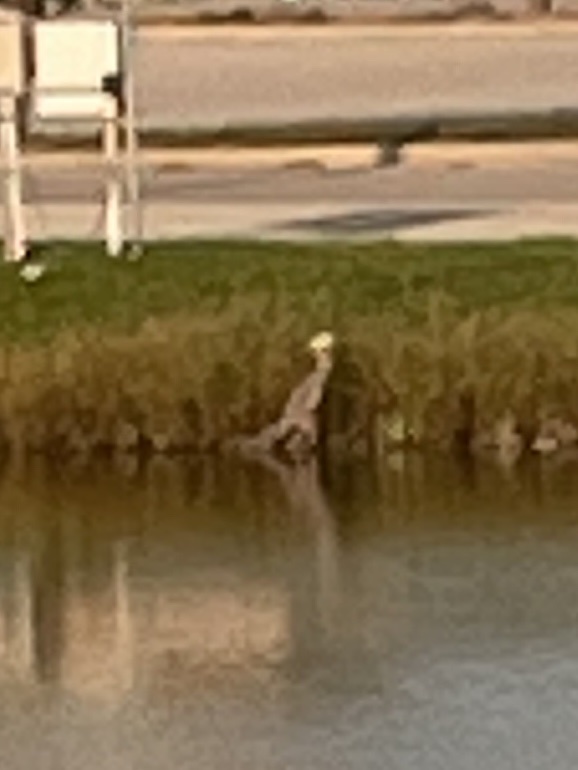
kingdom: Animalia
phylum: Chordata
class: Aves
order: Pelecaniformes
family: Ardeidae
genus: Ardea
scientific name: Ardea herodias
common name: Great blue heron
